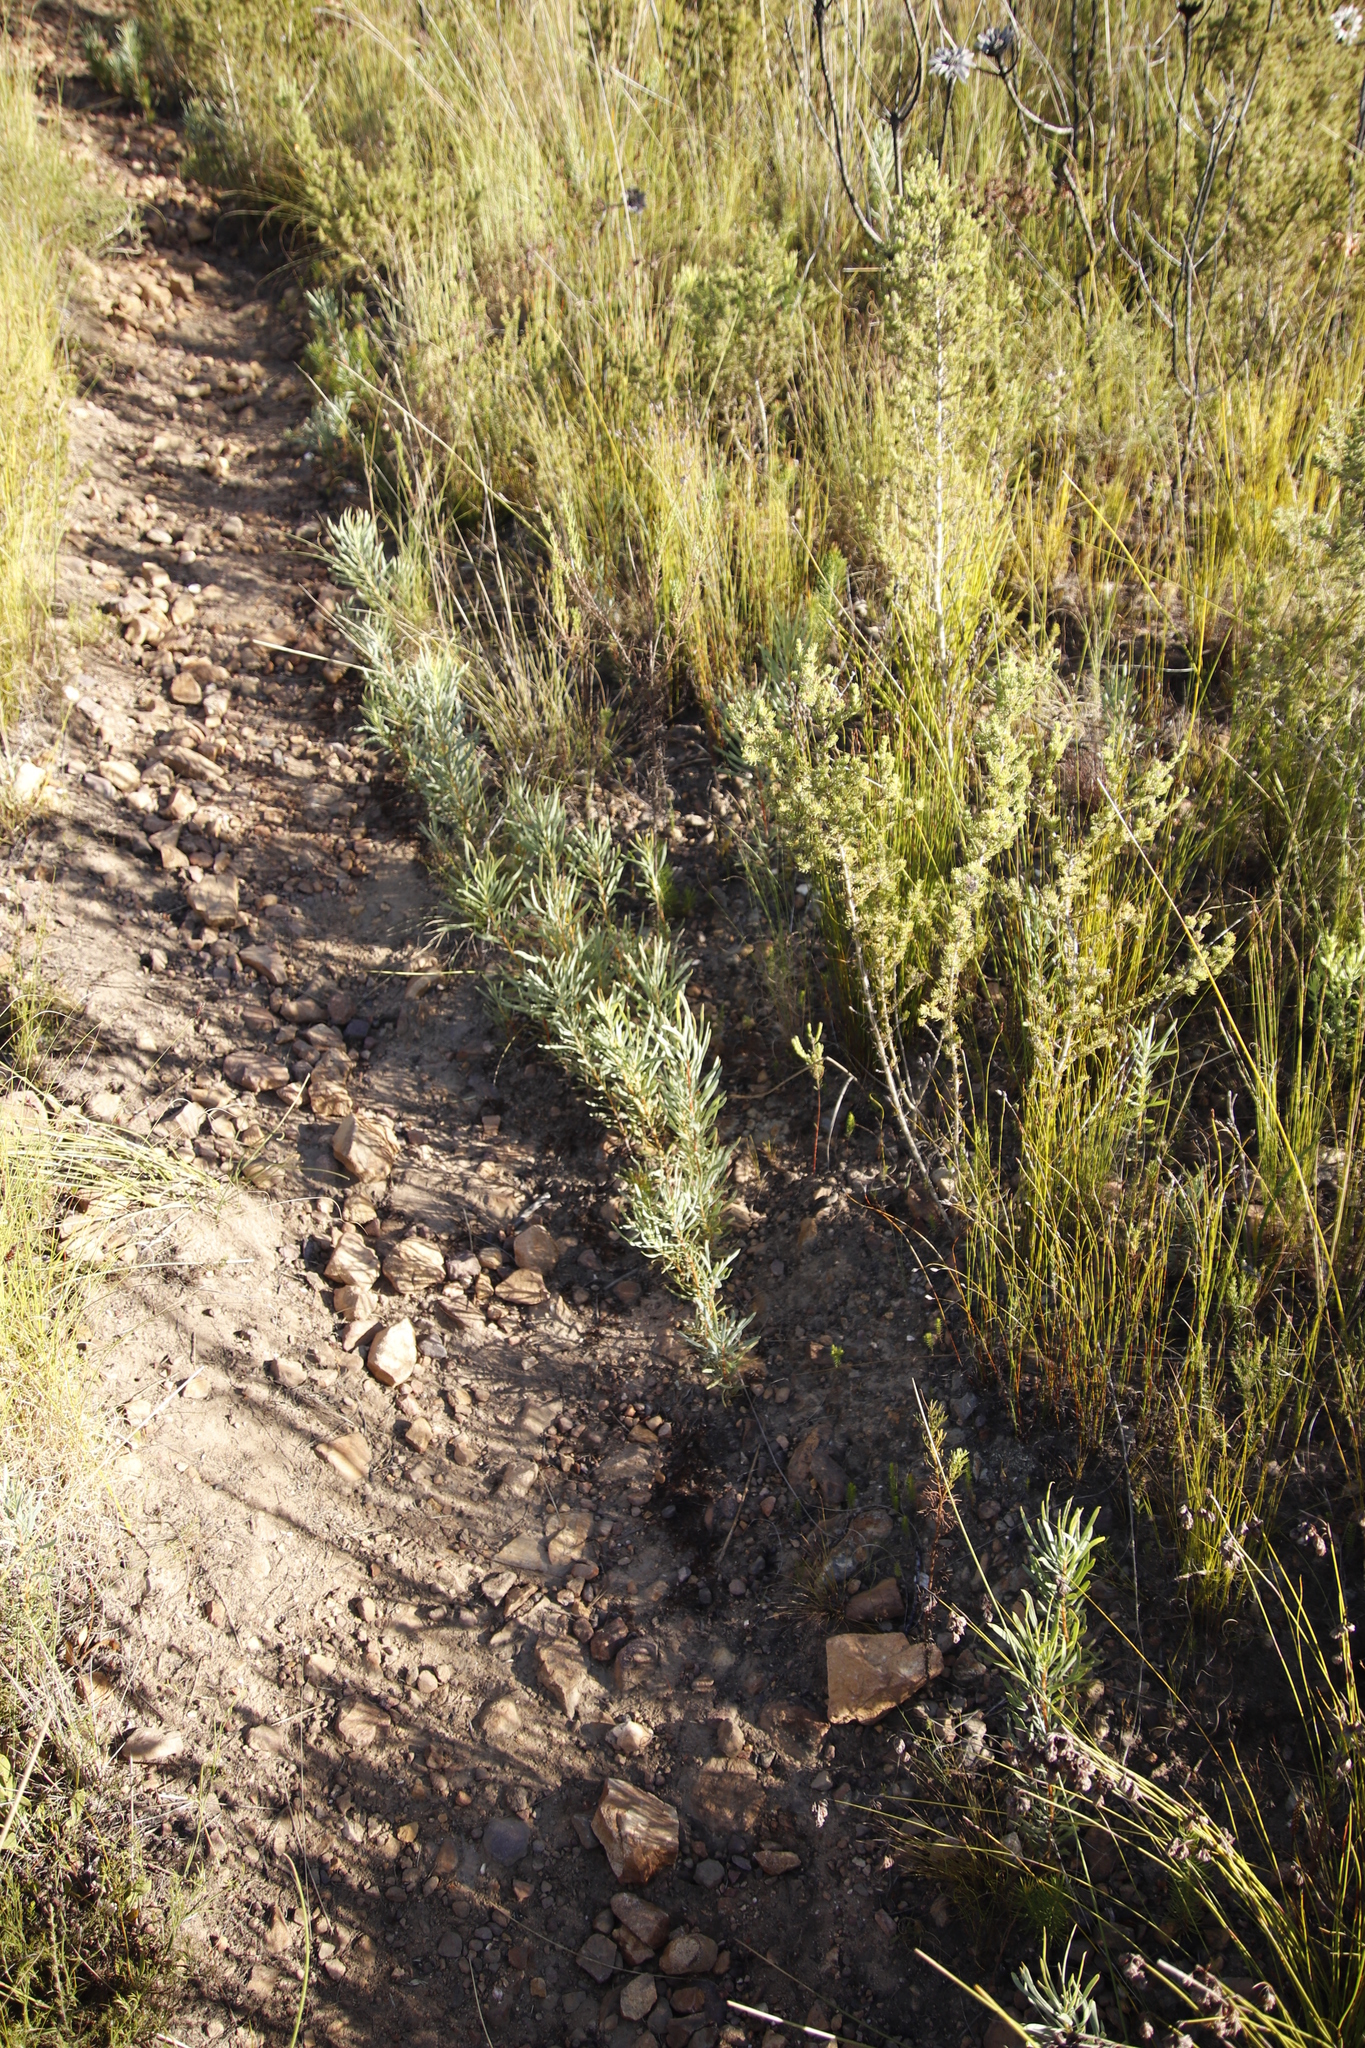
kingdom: Plantae
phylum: Tracheophyta
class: Magnoliopsida
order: Proteales
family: Proteaceae
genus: Protea
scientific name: Protea repens
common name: Sugarbush
